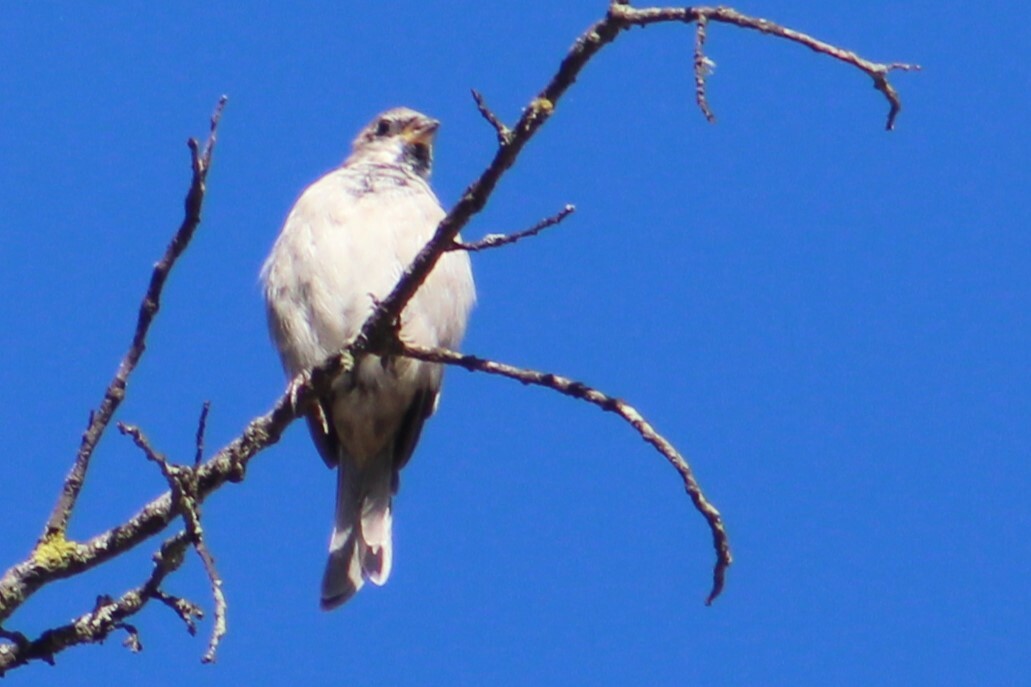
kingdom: Animalia
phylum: Chordata
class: Aves
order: Passeriformes
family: Passeridae
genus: Passer
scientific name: Passer domesticus
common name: House sparrow
